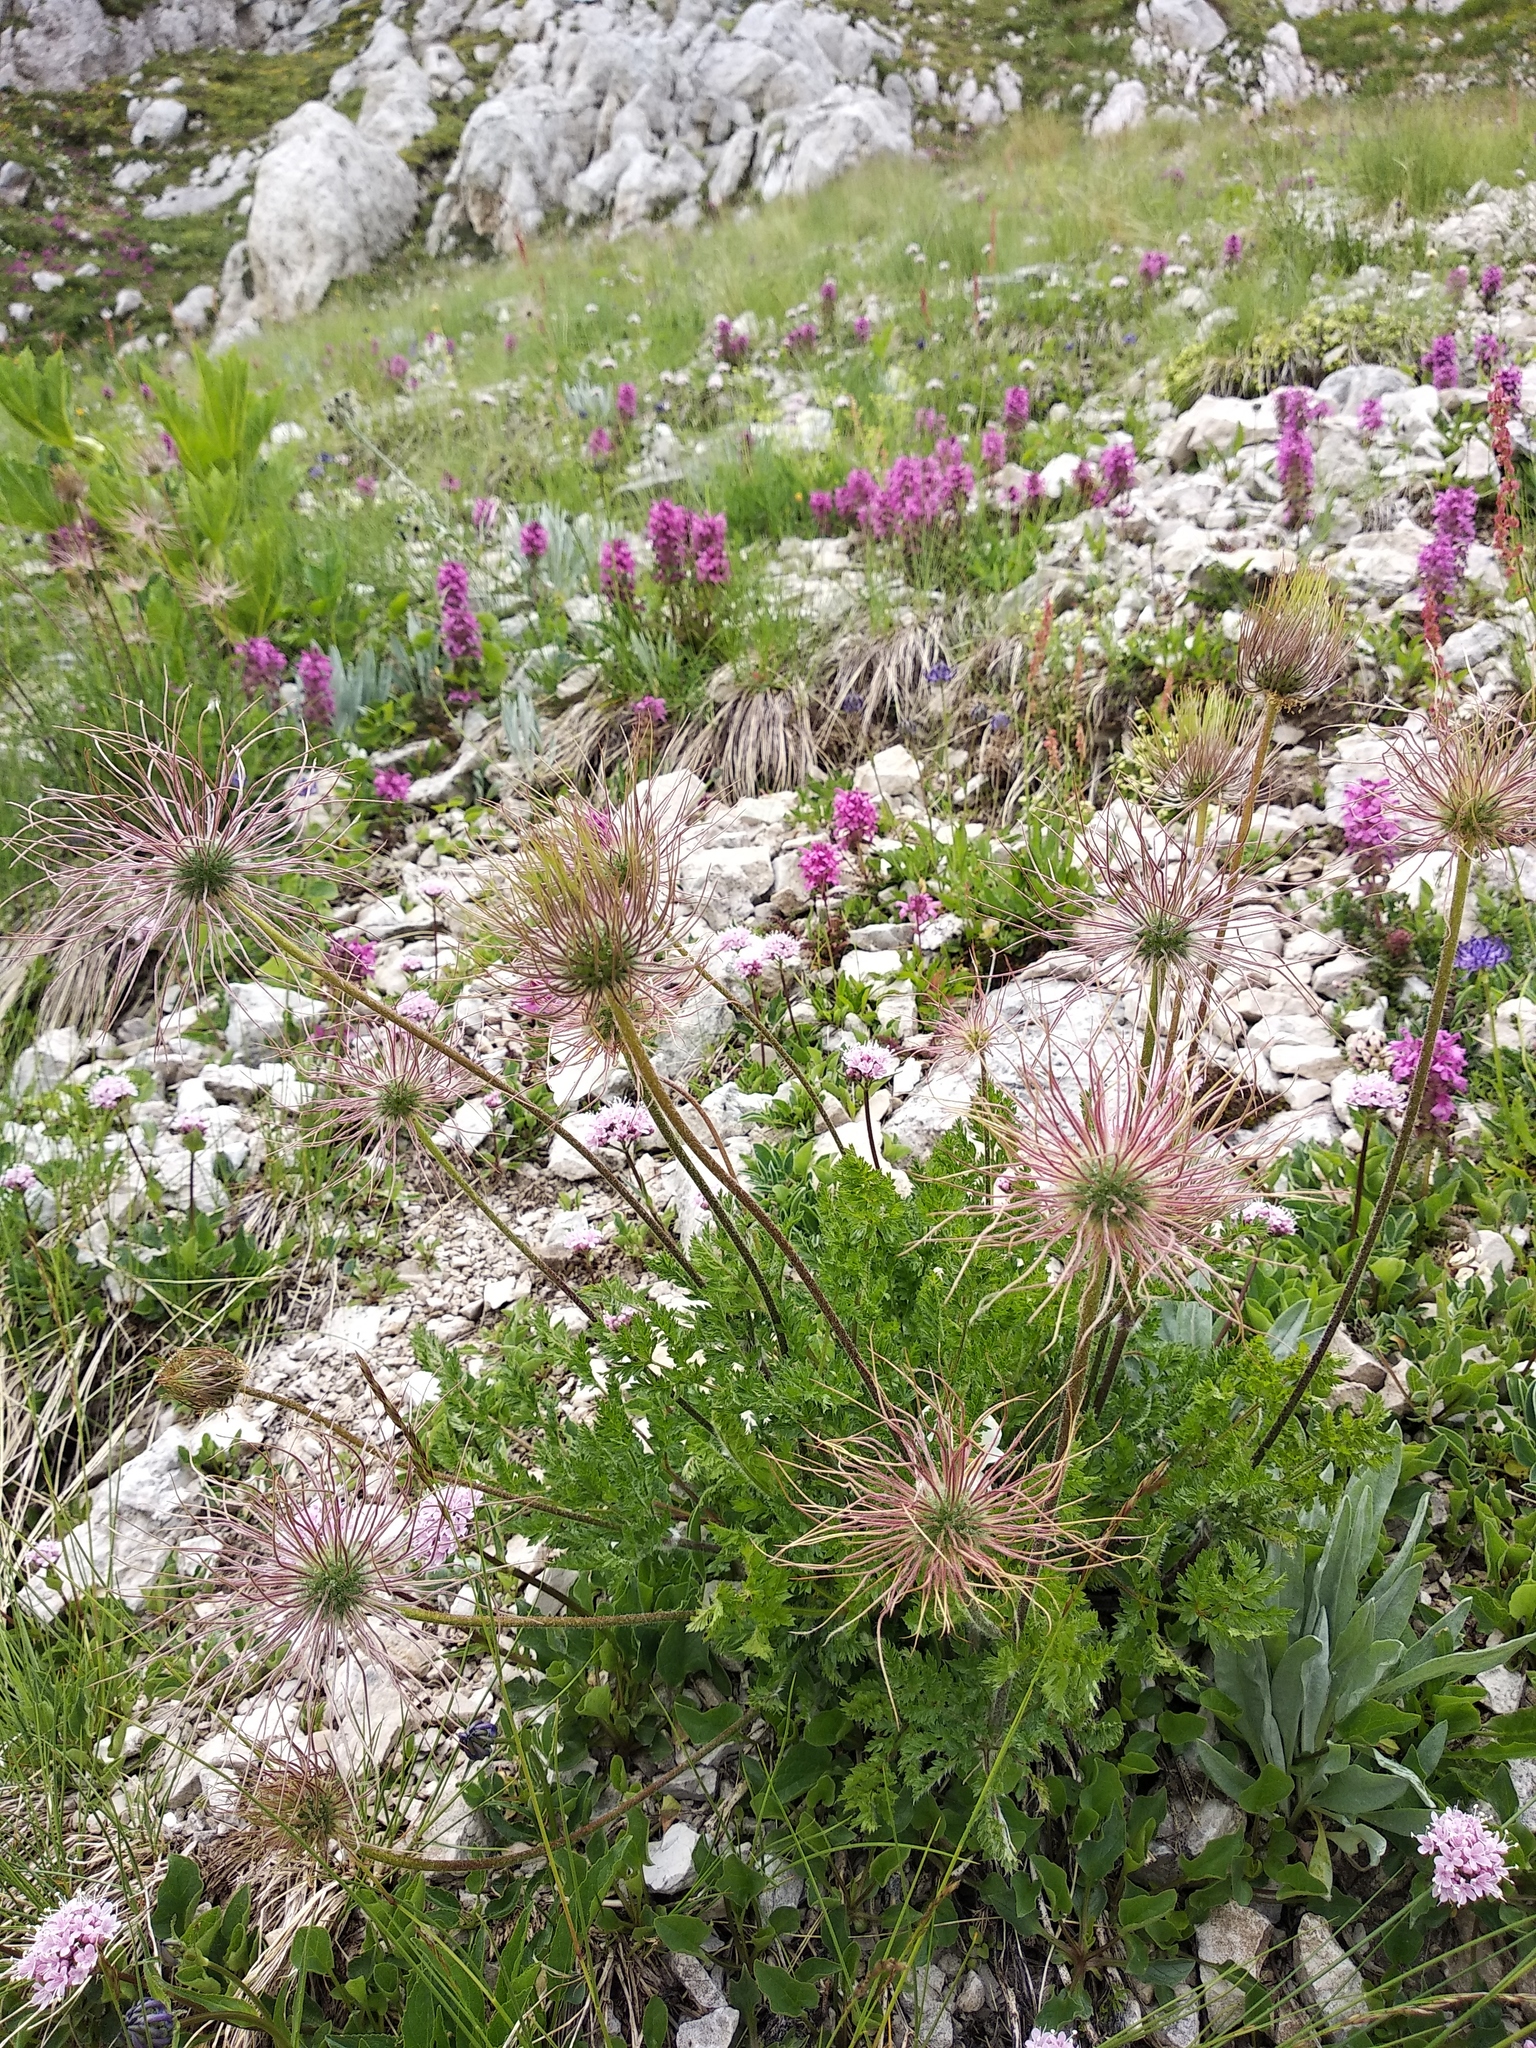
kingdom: Plantae
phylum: Tracheophyta
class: Magnoliopsida
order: Ranunculales
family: Ranunculaceae
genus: Pulsatilla
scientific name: Pulsatilla alpina
